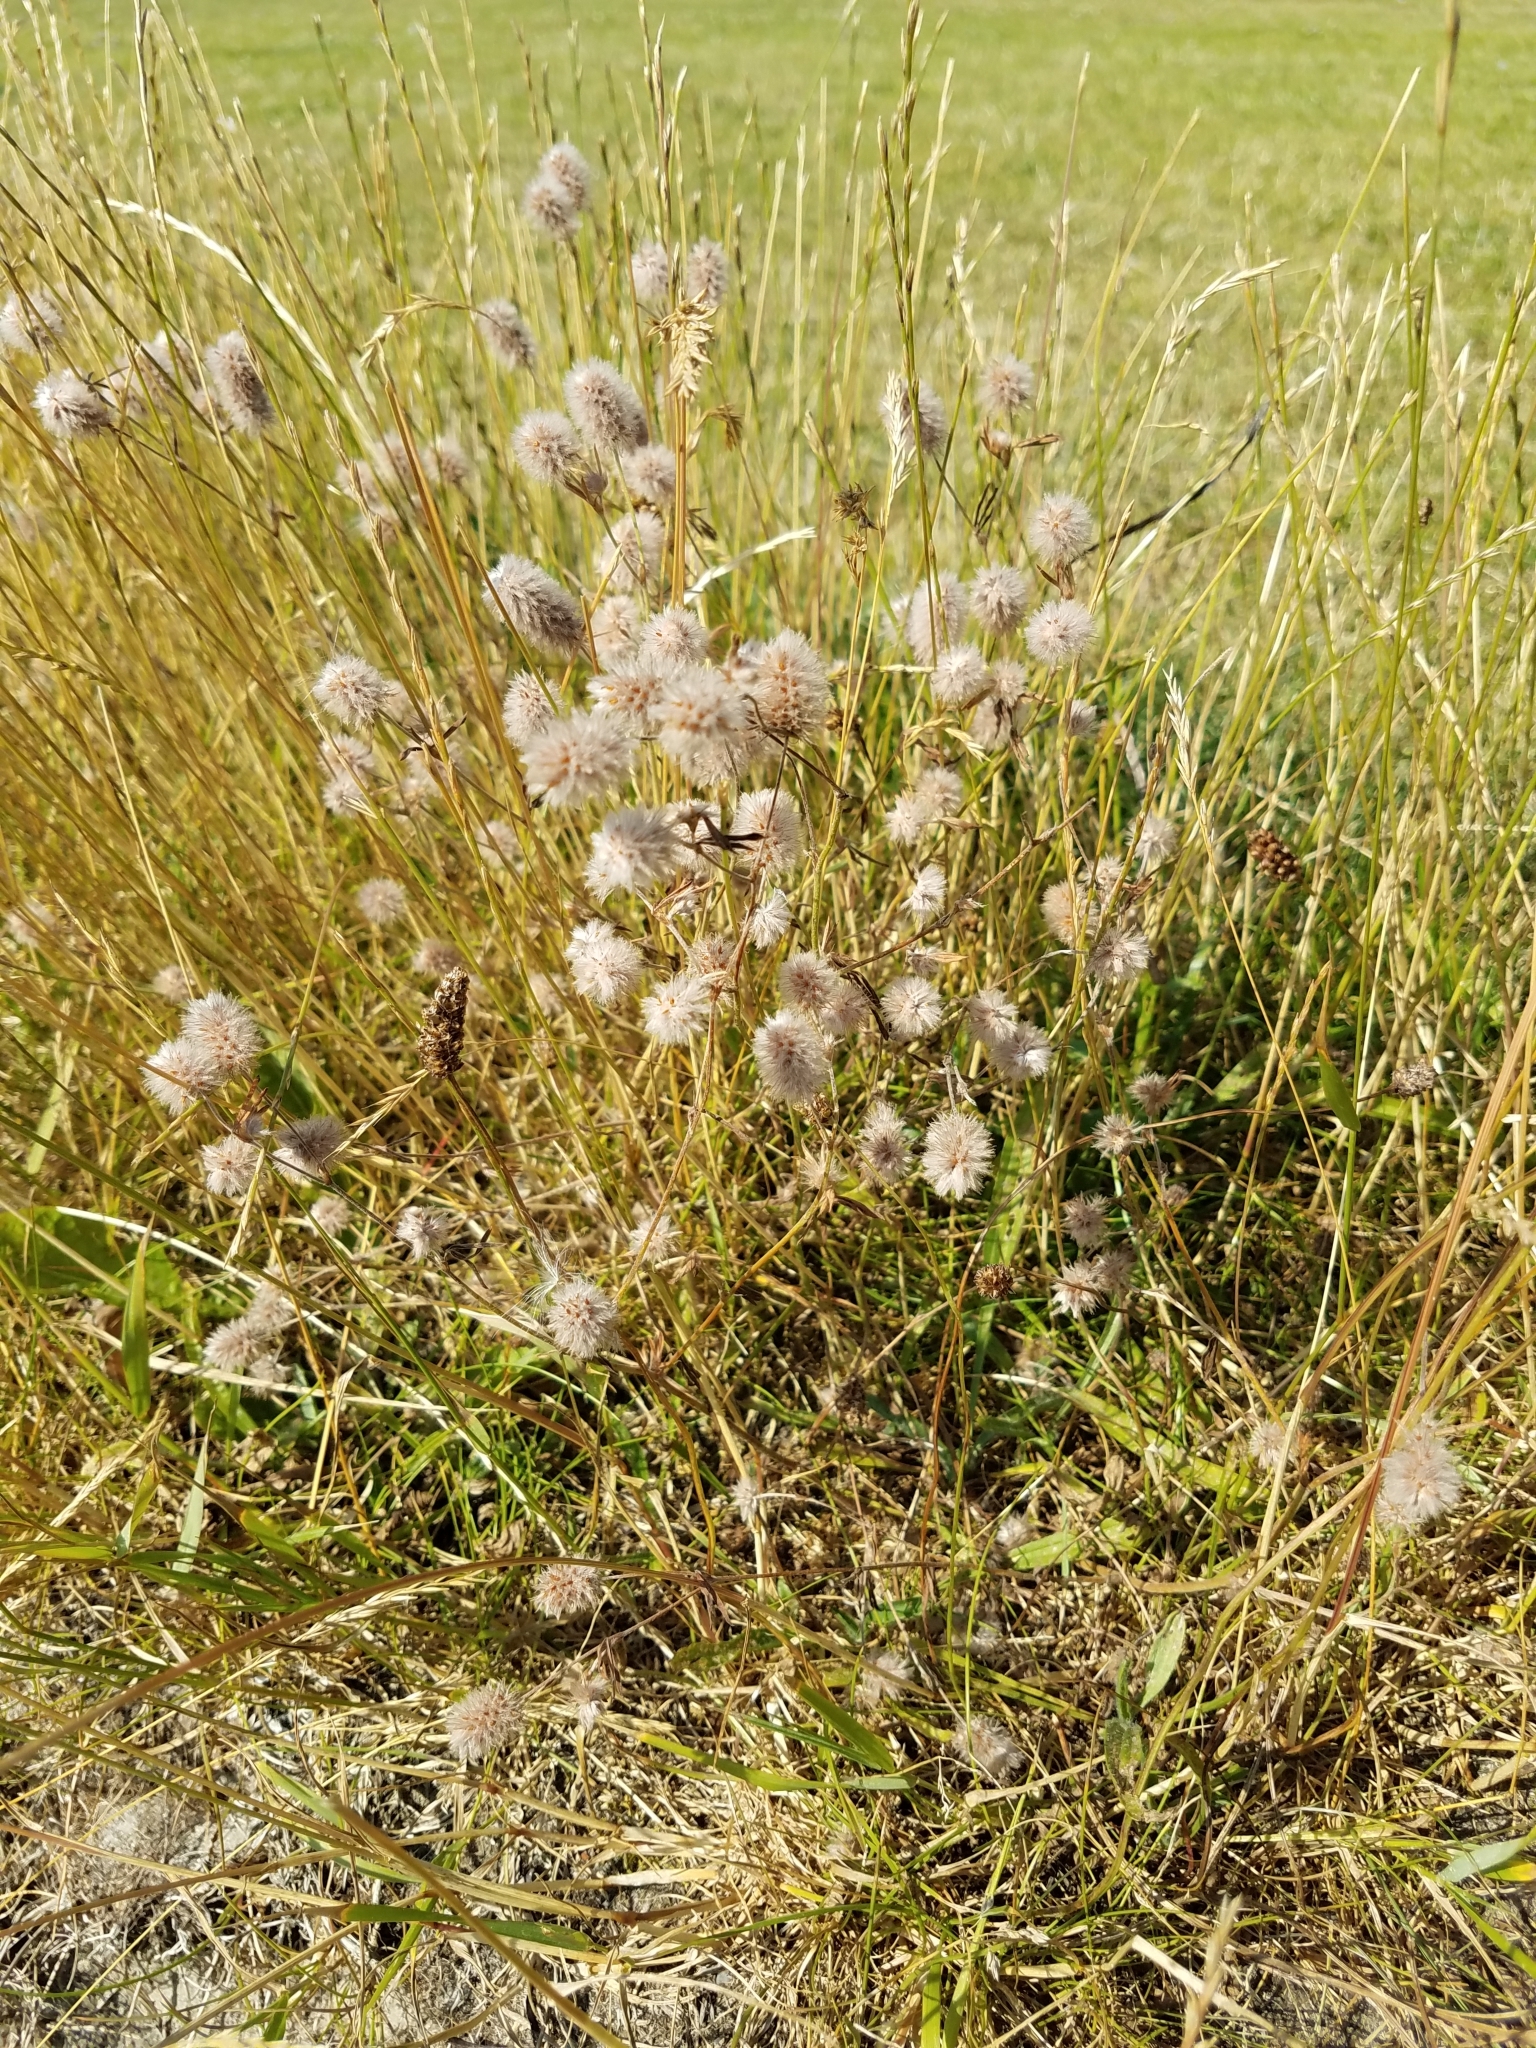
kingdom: Plantae
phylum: Tracheophyta
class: Magnoliopsida
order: Fabales
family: Fabaceae
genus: Trifolium
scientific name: Trifolium arvense
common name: Hare's-foot clover
